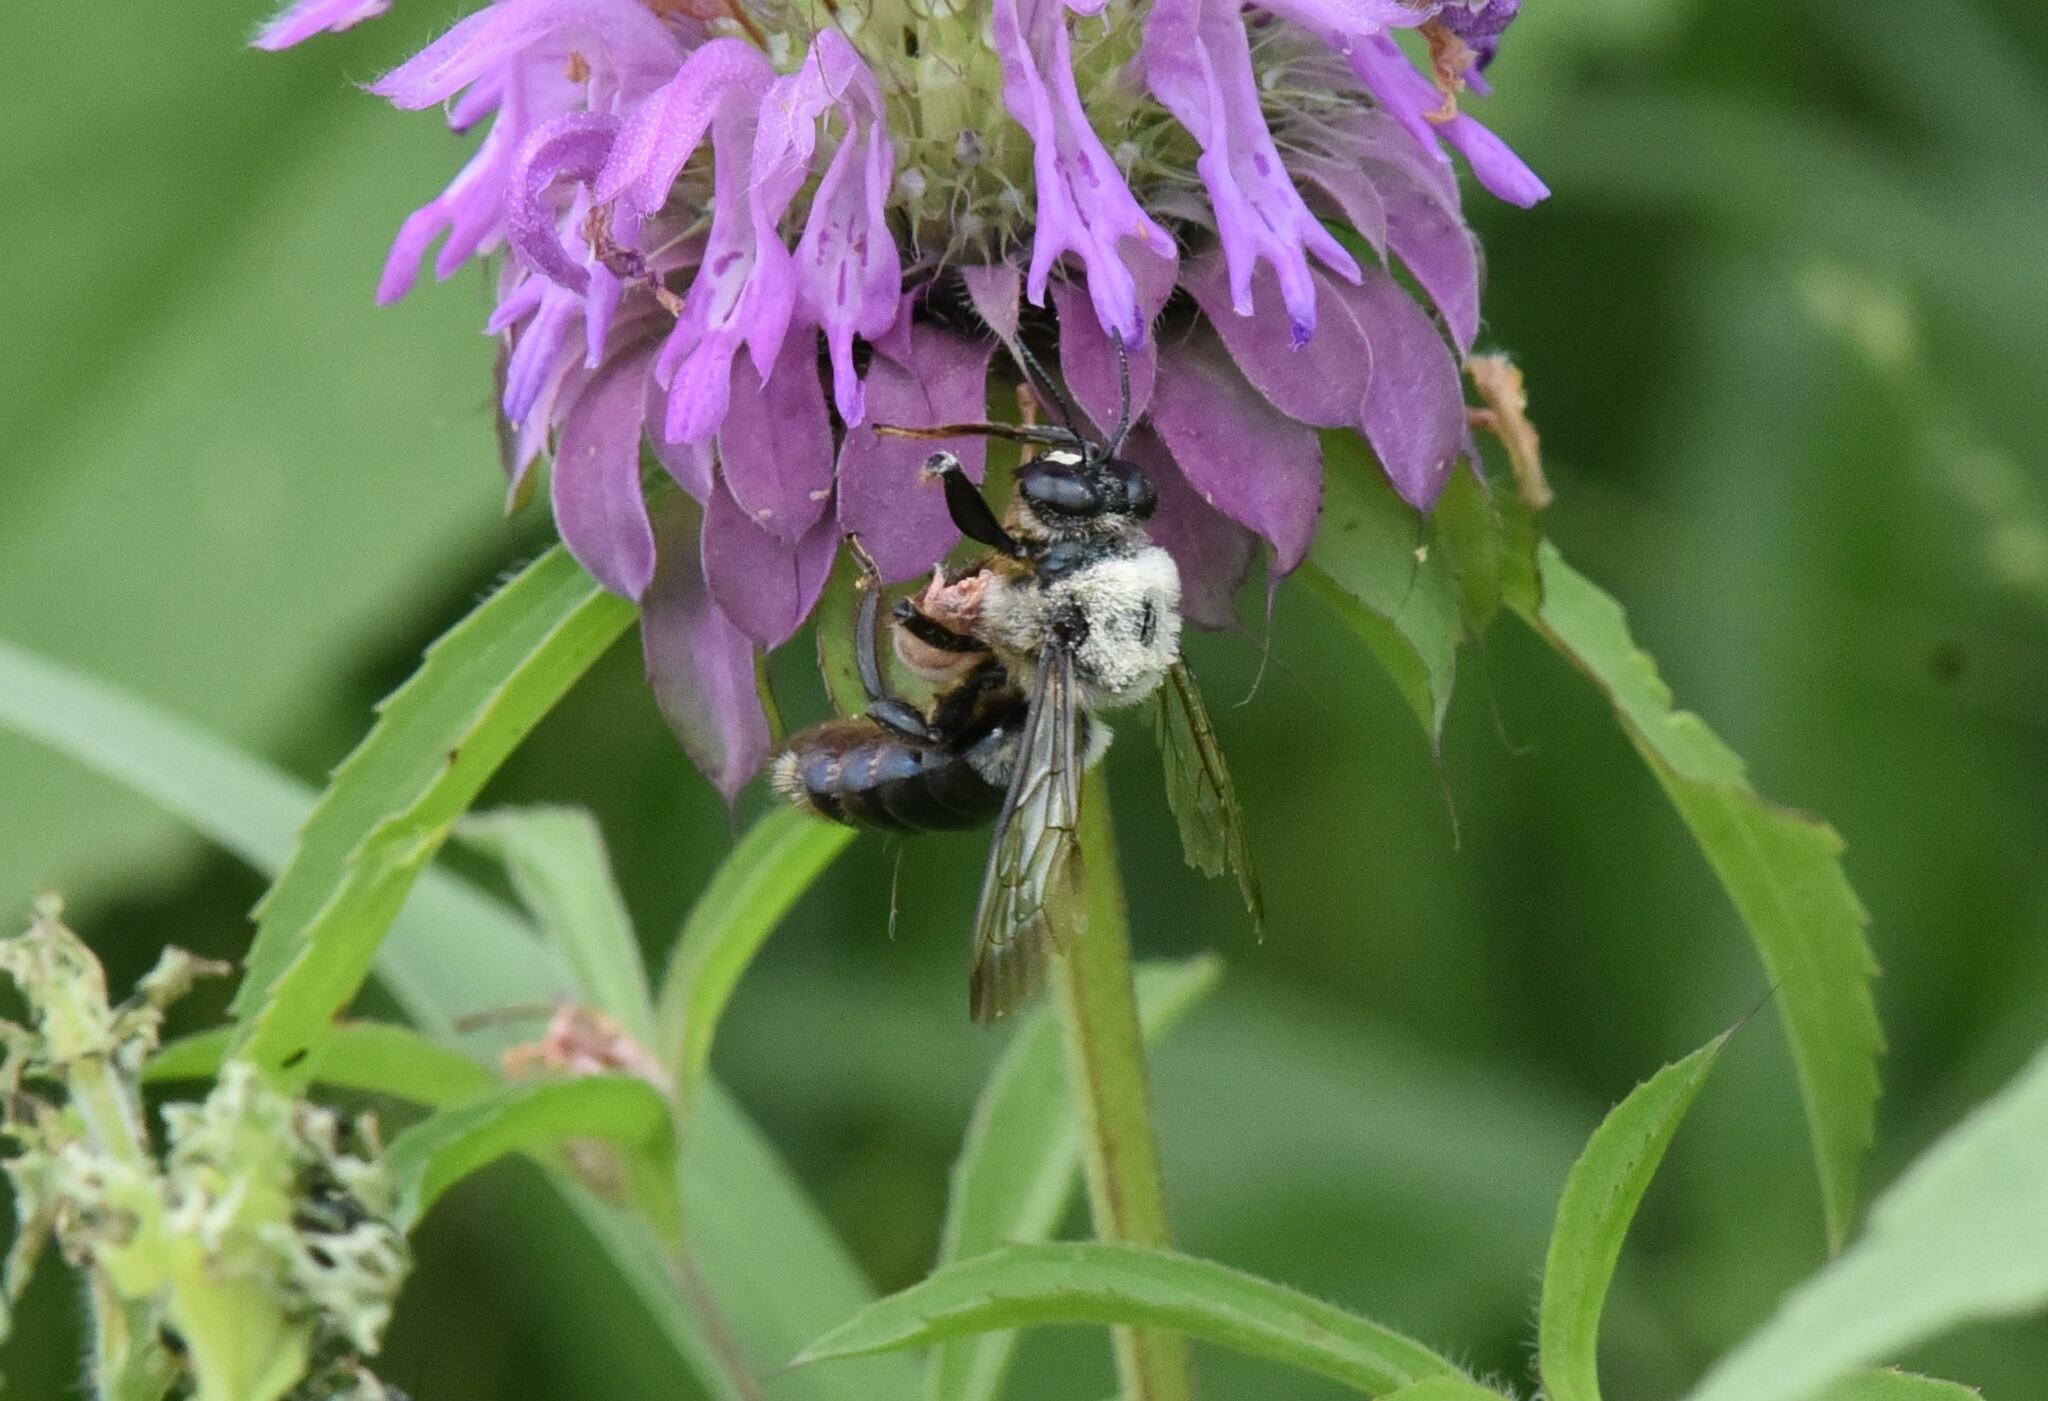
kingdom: Animalia
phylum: Arthropoda
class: Insecta
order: Hymenoptera
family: Apidae
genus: Xylocopa
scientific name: Xylocopa virginica
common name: Carpenter bee
